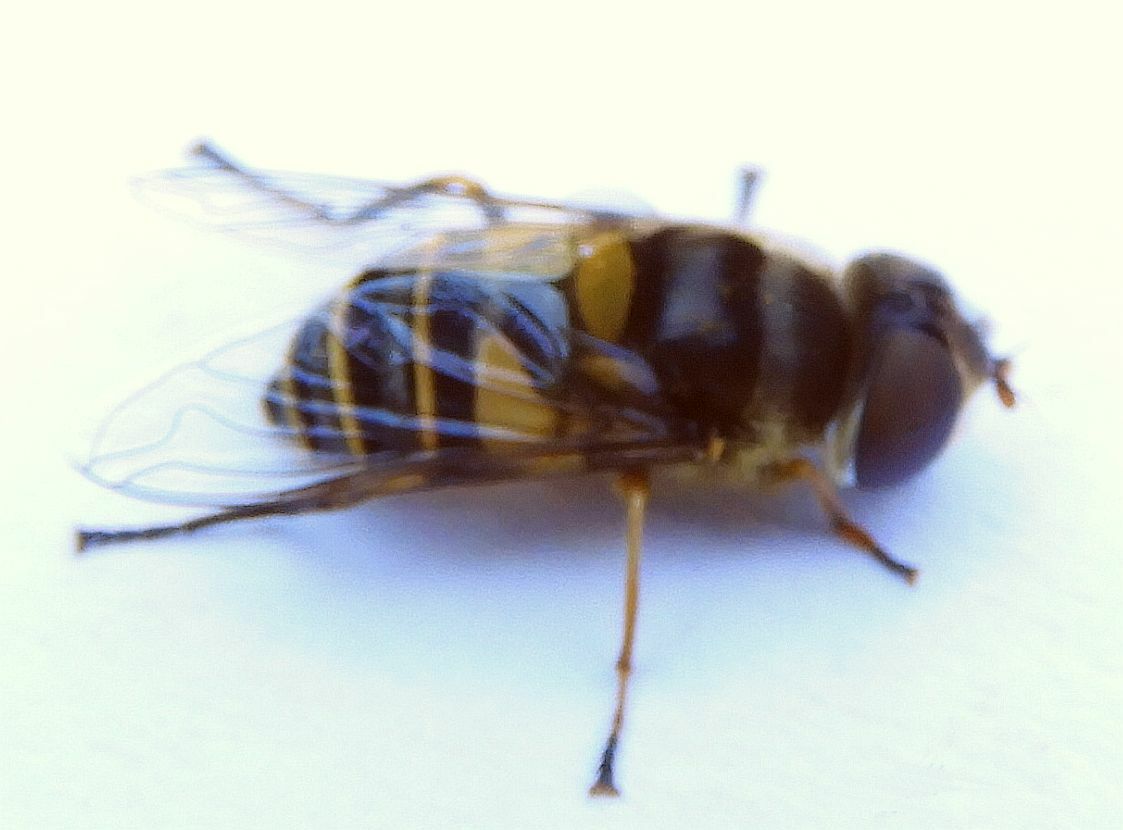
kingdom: Animalia
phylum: Arthropoda
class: Insecta
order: Diptera
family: Syrphidae
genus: Eristalis
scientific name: Eristalis transversa
